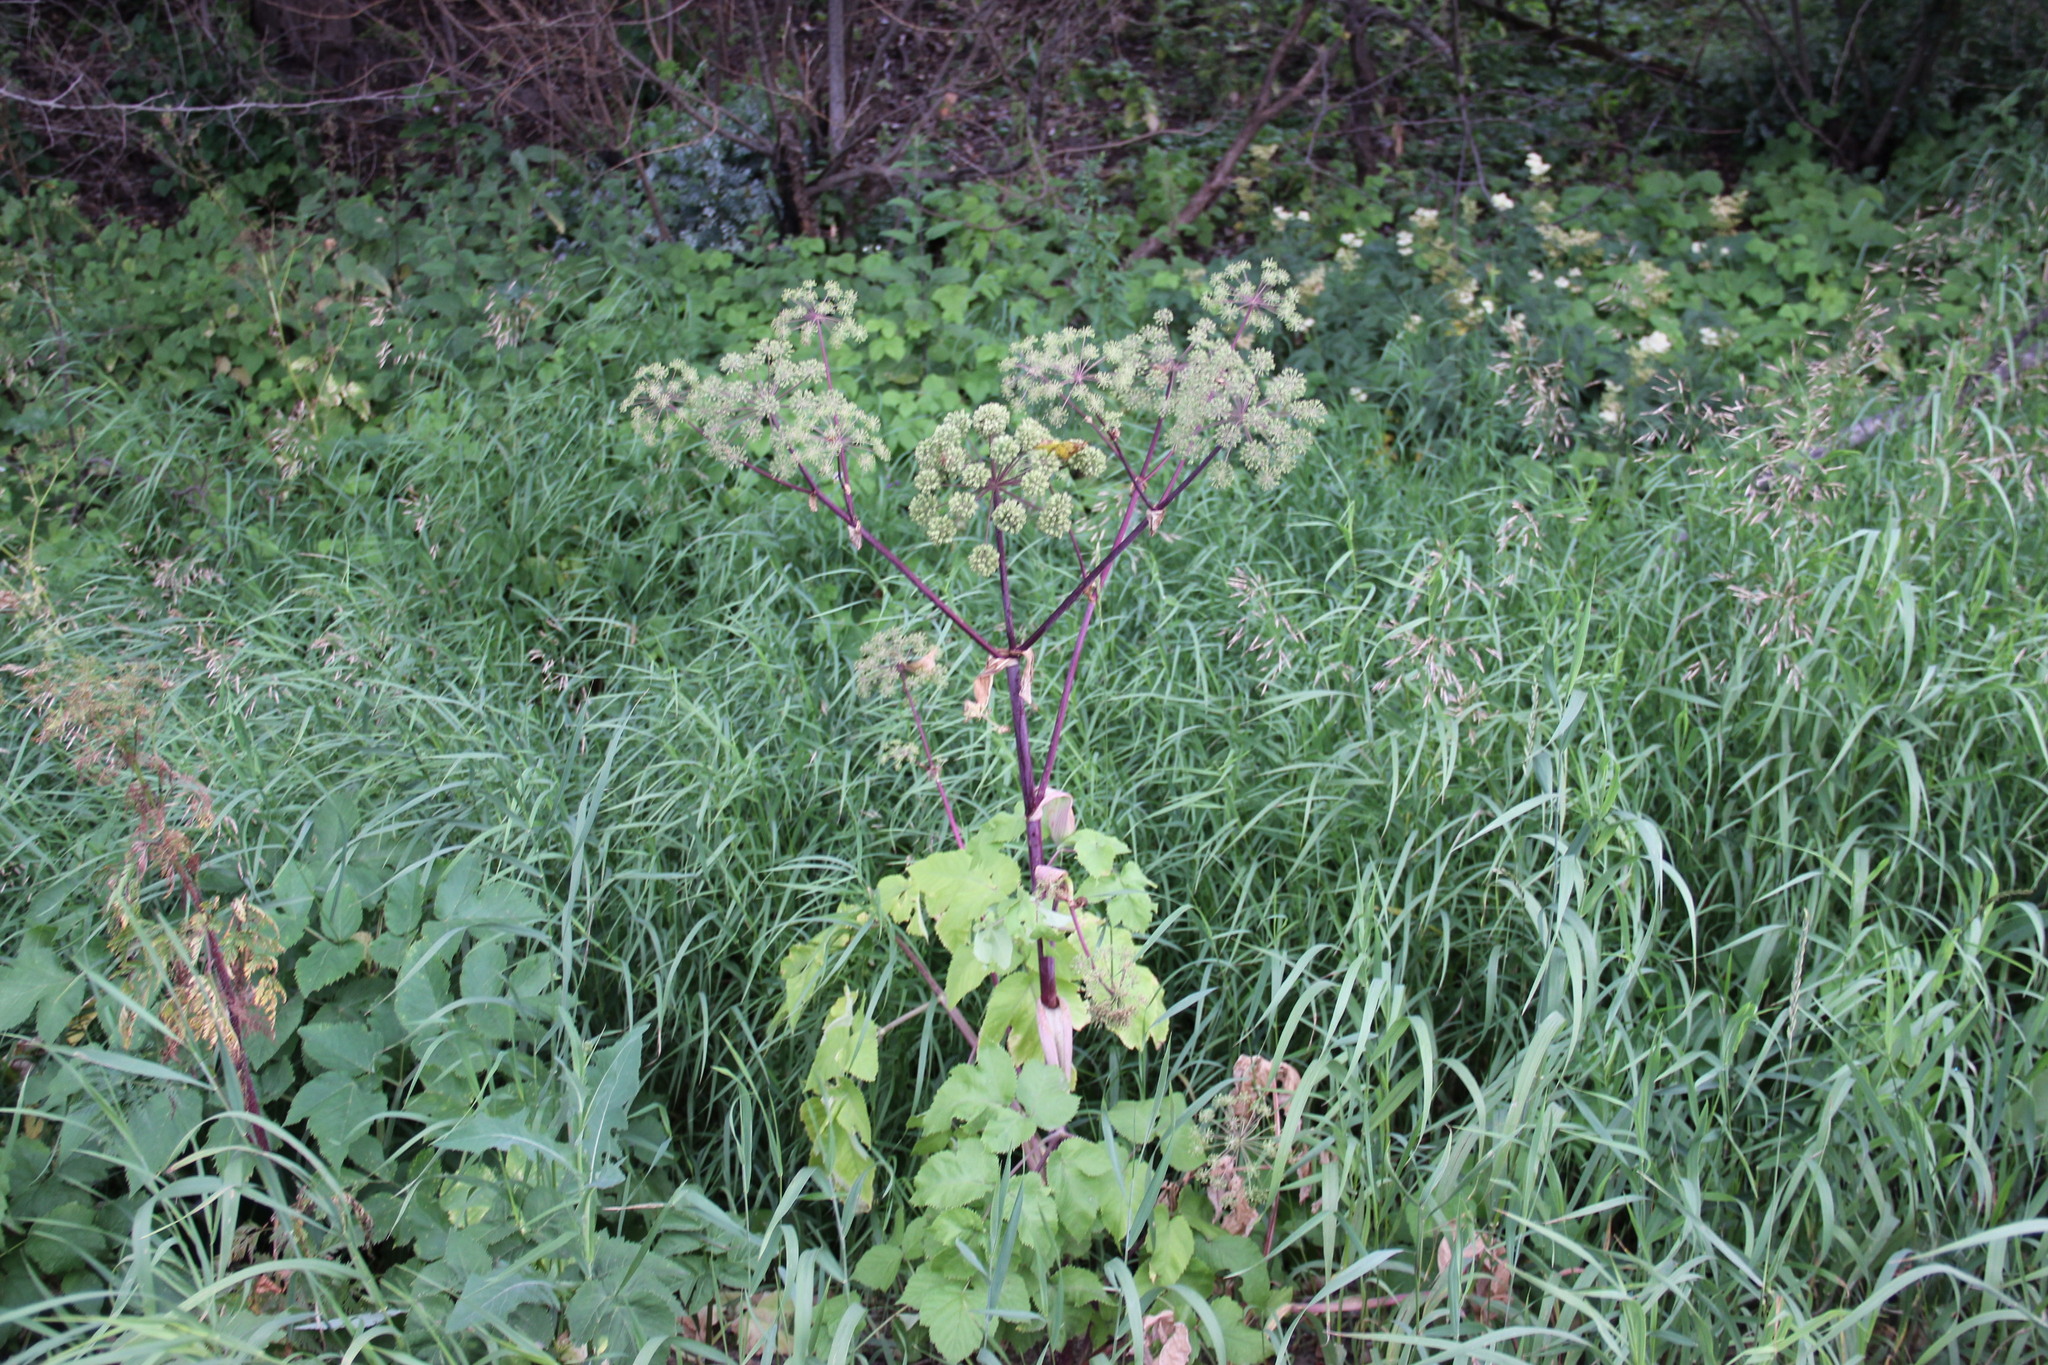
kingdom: Plantae
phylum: Tracheophyta
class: Magnoliopsida
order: Apiales
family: Apiaceae
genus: Angelica
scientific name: Angelica archangelica
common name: Garden angelica
